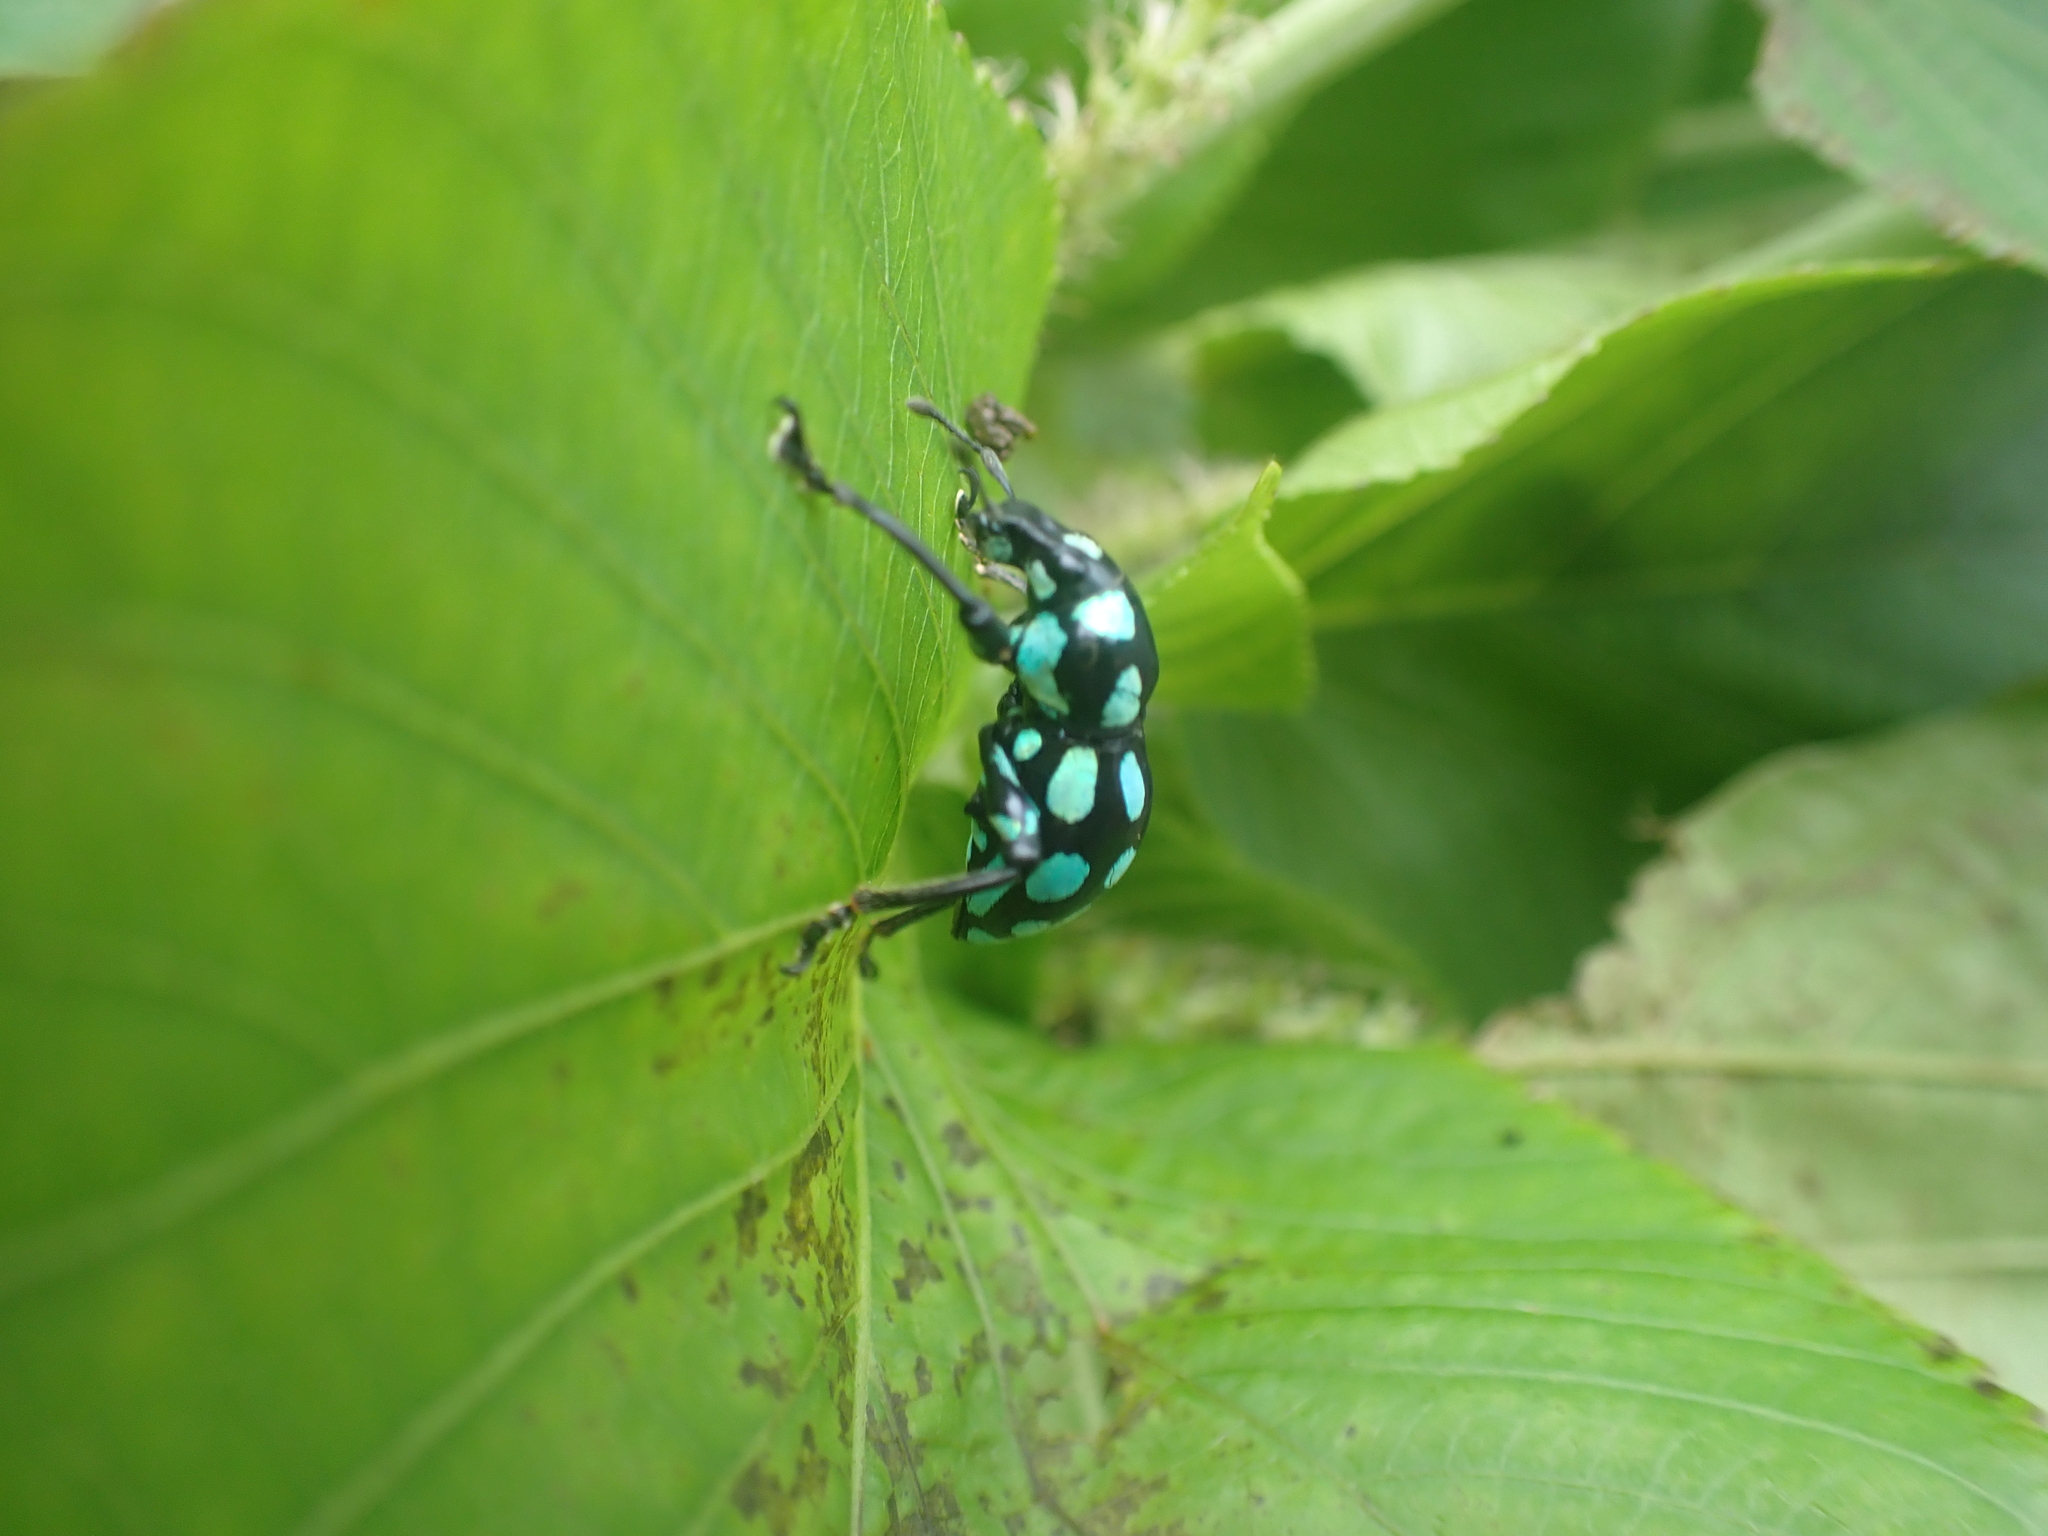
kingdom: Animalia
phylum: Arthropoda
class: Insecta
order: Coleoptera
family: Curculionidae
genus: Pachyrhynchus
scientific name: Pachyrhynchus tobafolius
